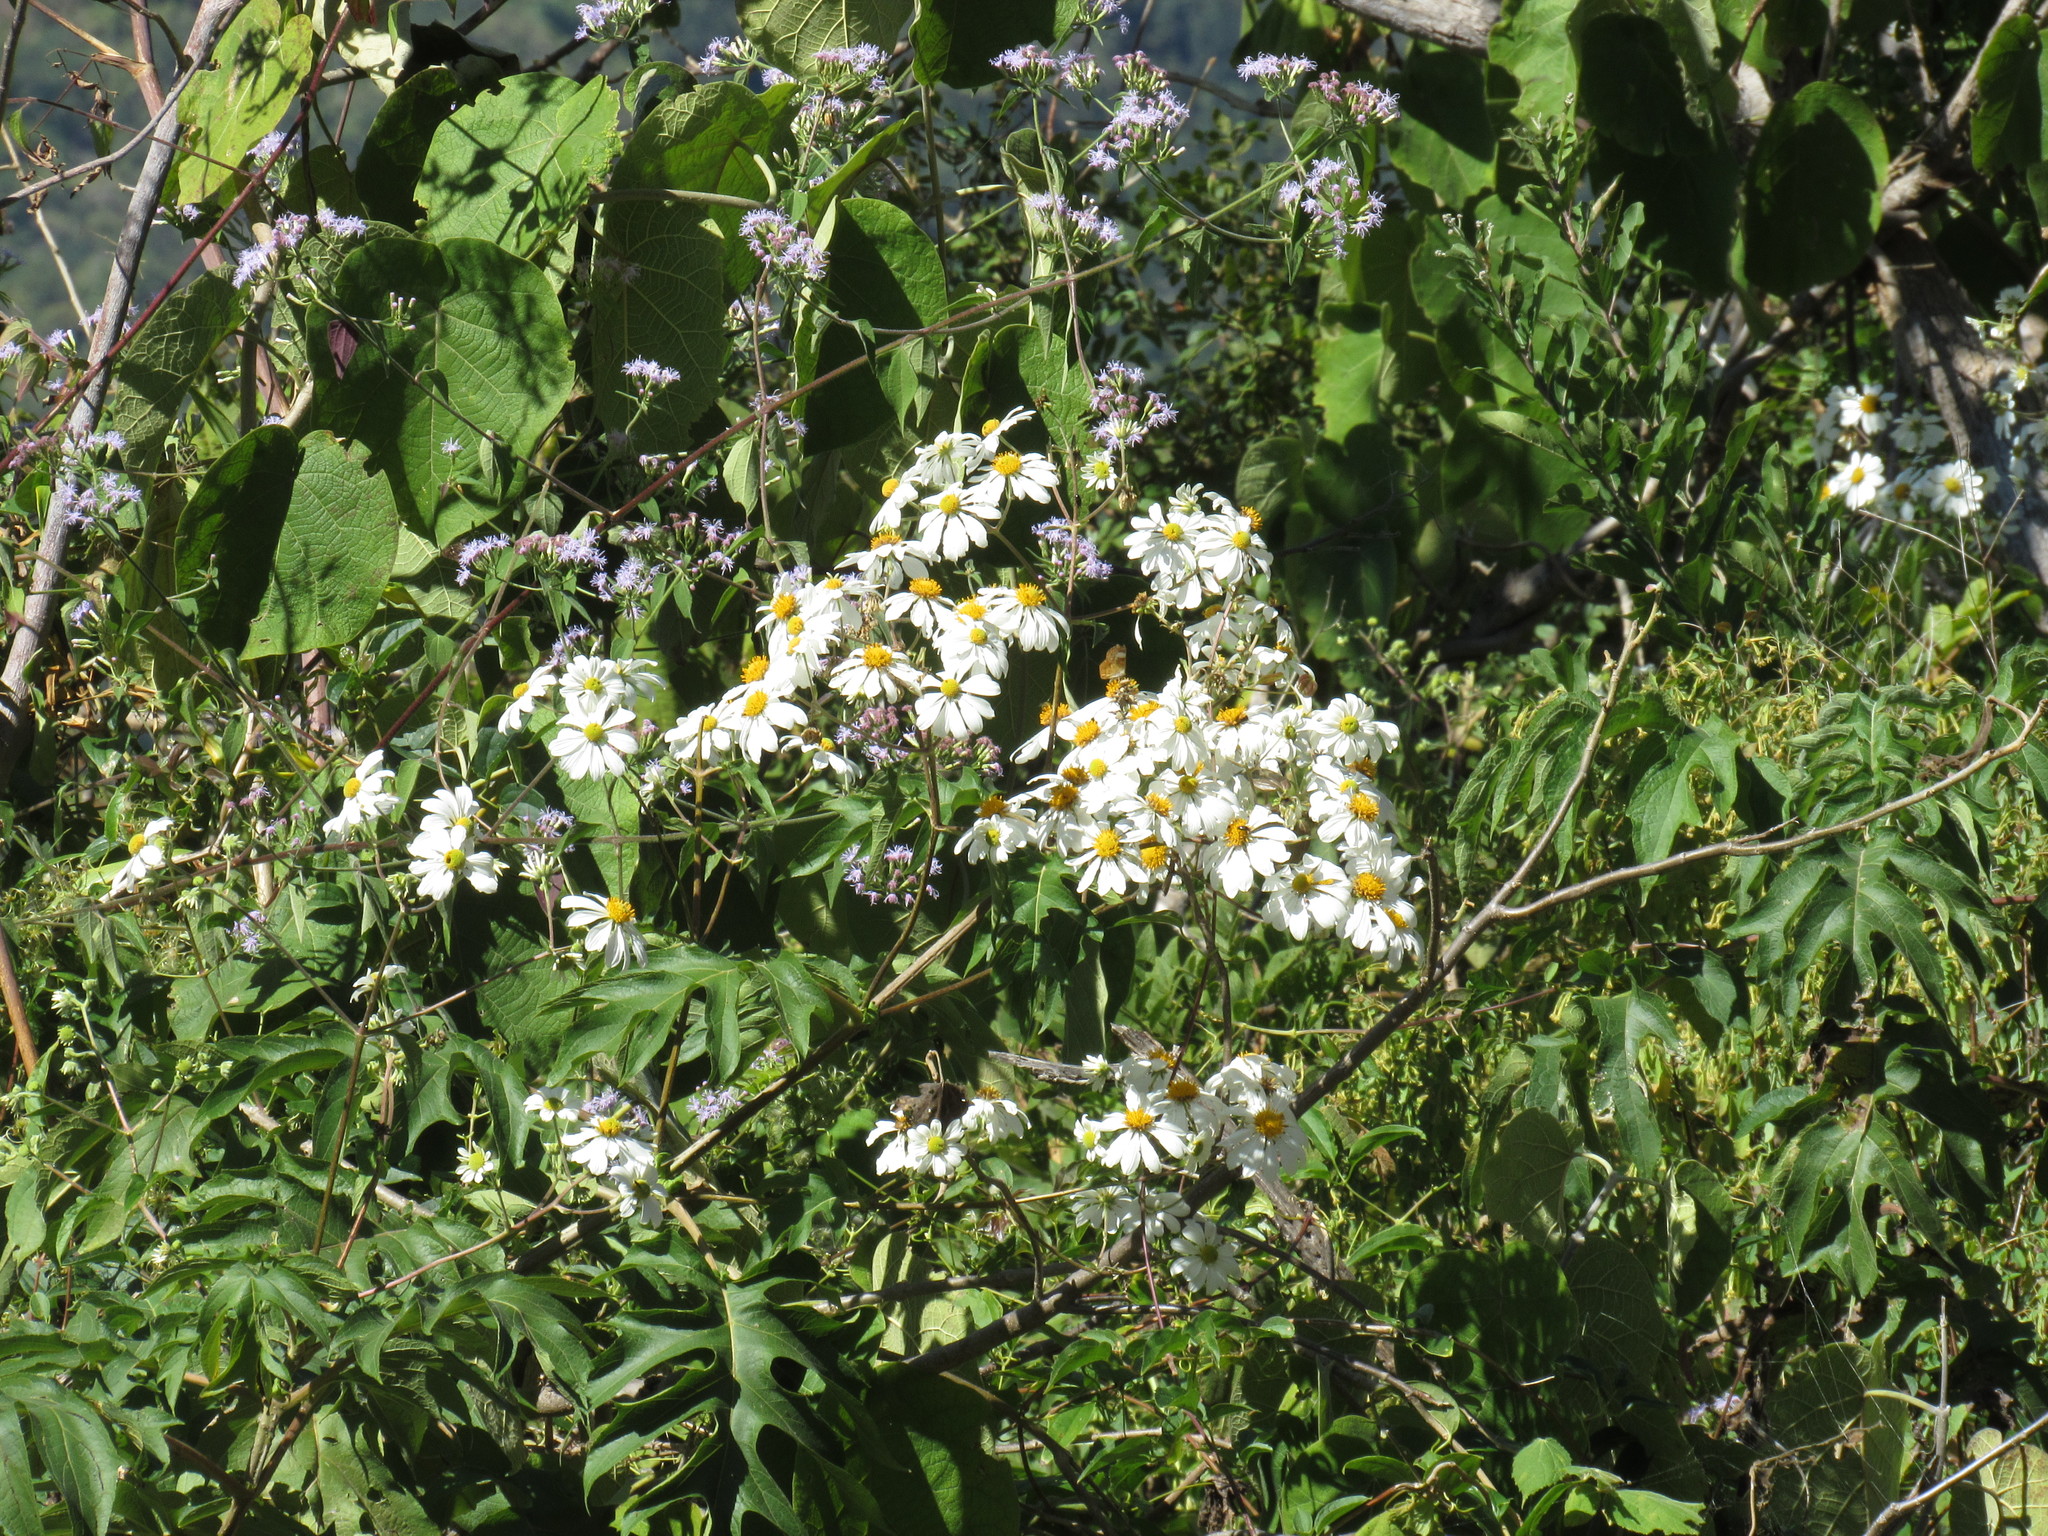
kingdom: Plantae
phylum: Tracheophyta
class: Magnoliopsida
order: Asterales
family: Asteraceae
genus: Montanoa
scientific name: Montanoa bipinnatifida
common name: Mexican daisy bush
